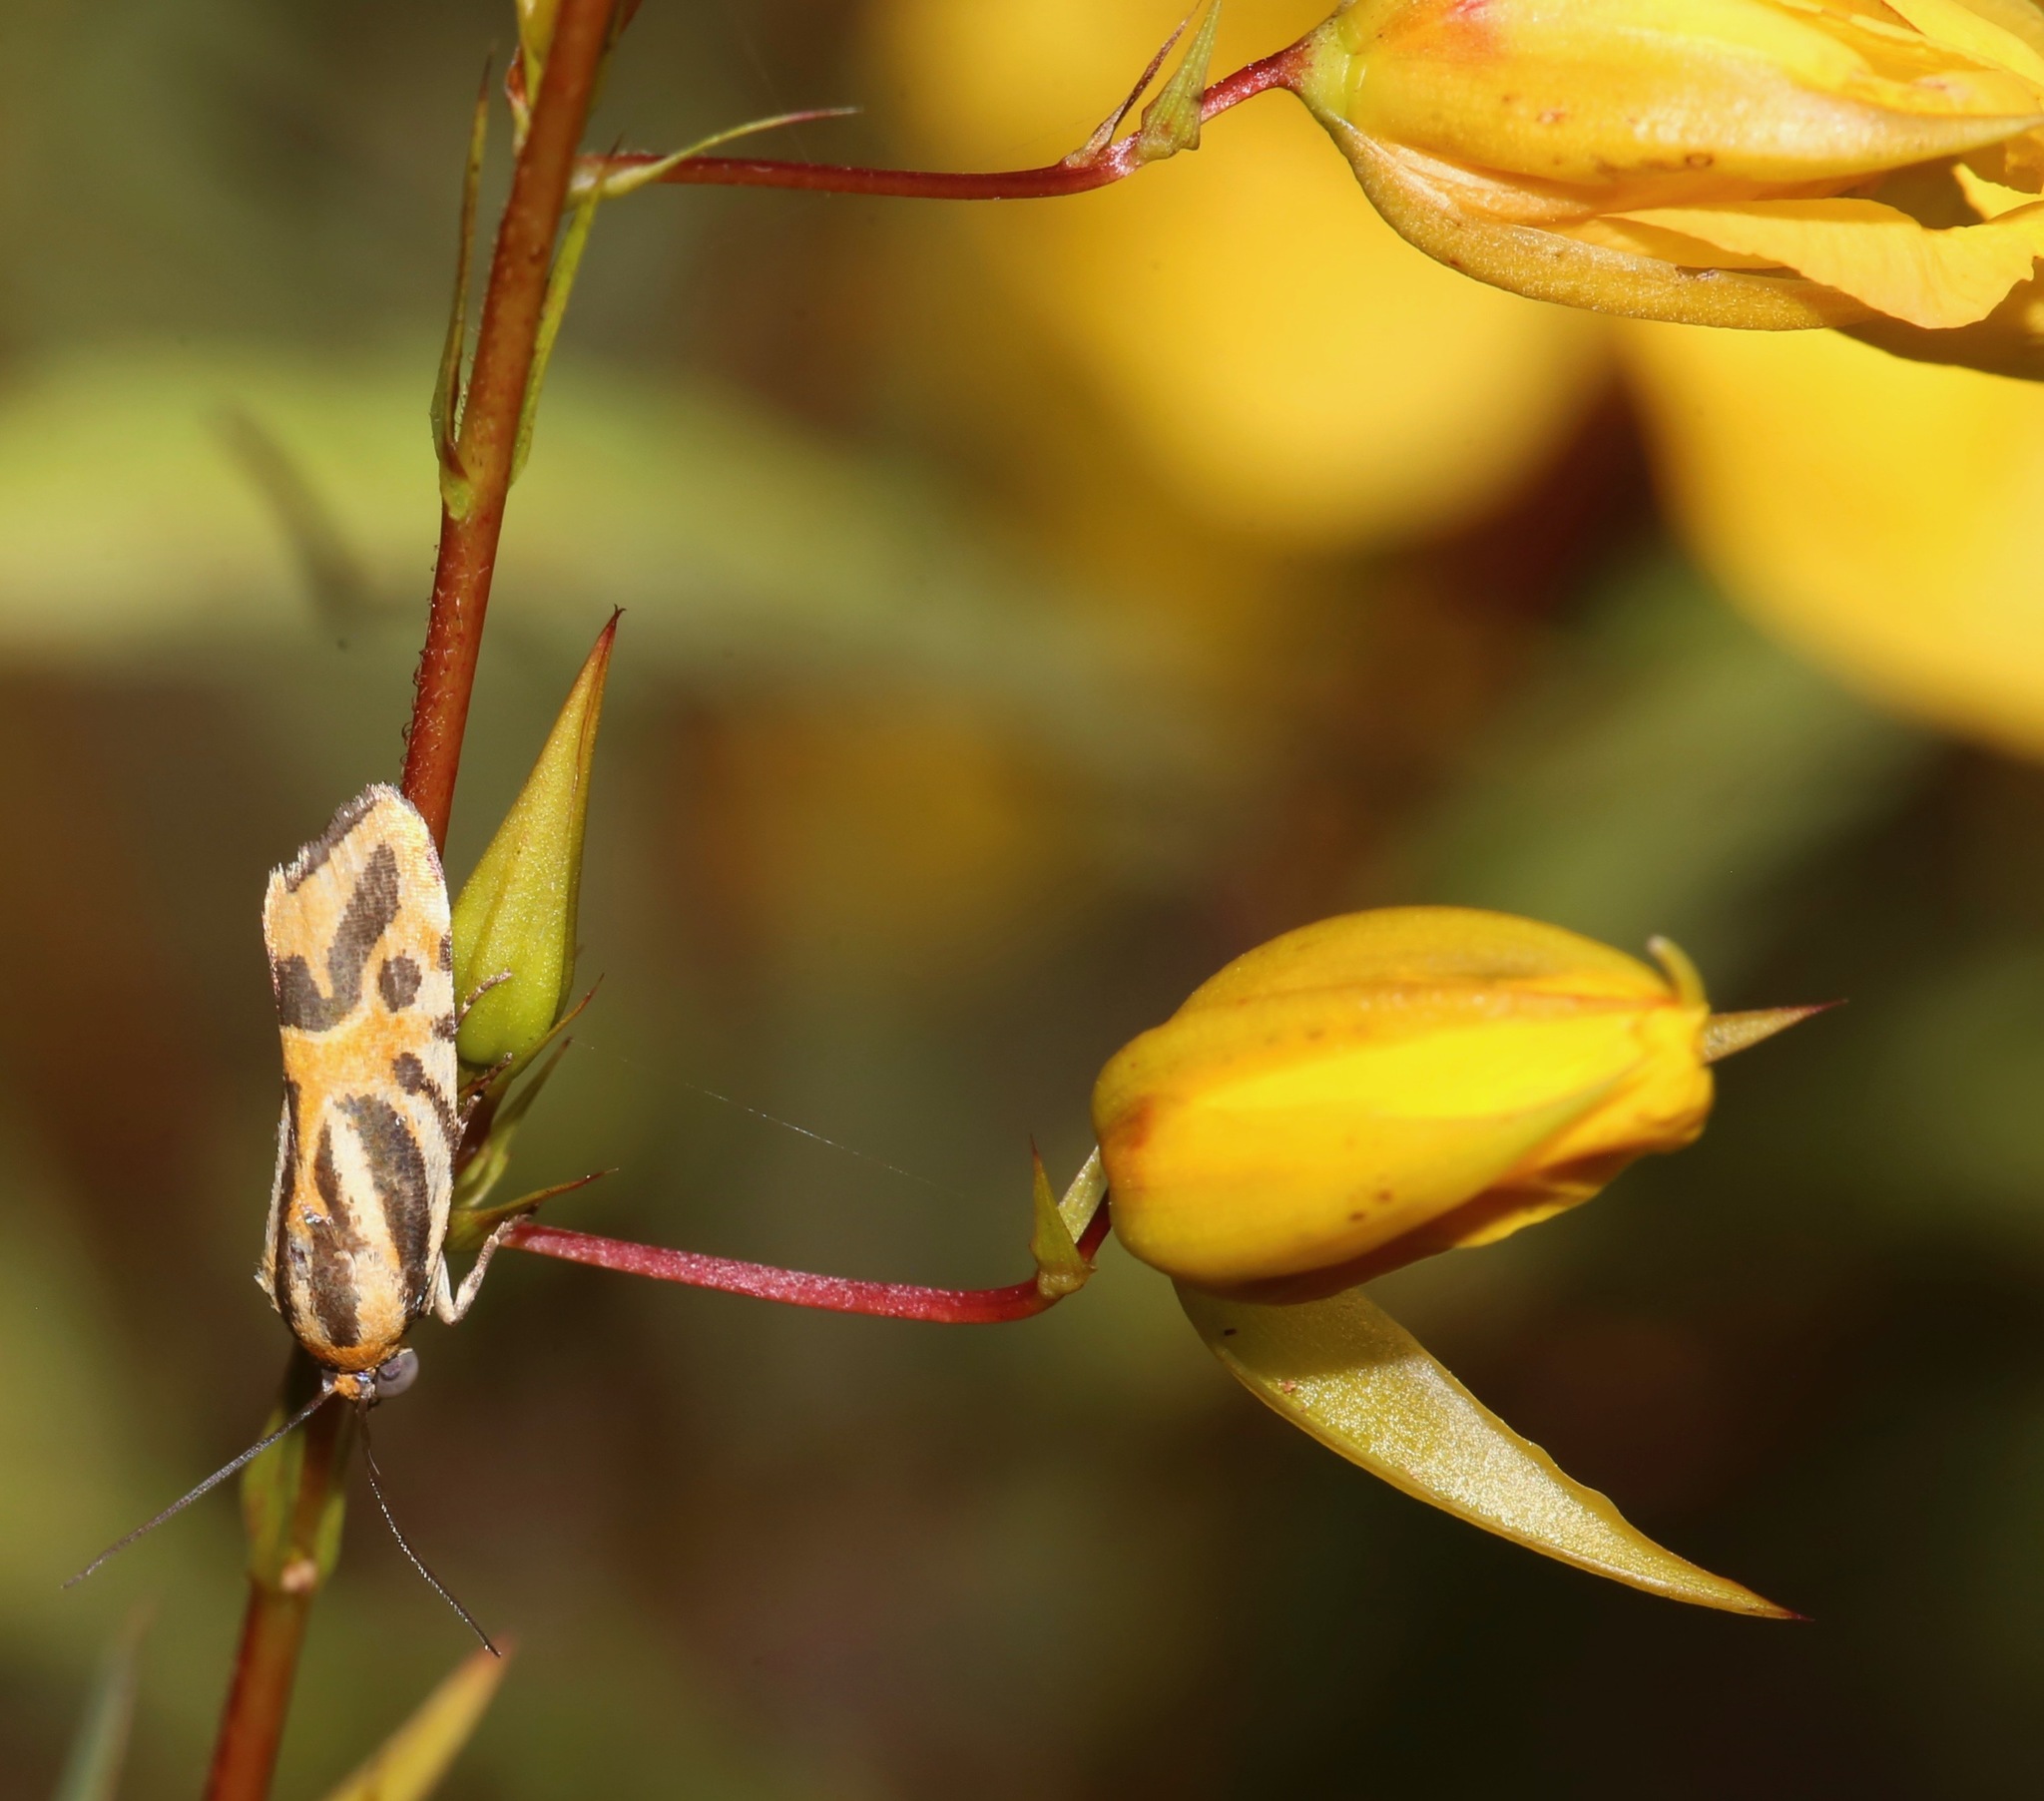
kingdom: Animalia
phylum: Arthropoda
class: Insecta
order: Lepidoptera
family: Noctuidae
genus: Acontia
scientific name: Acontia onagrus
